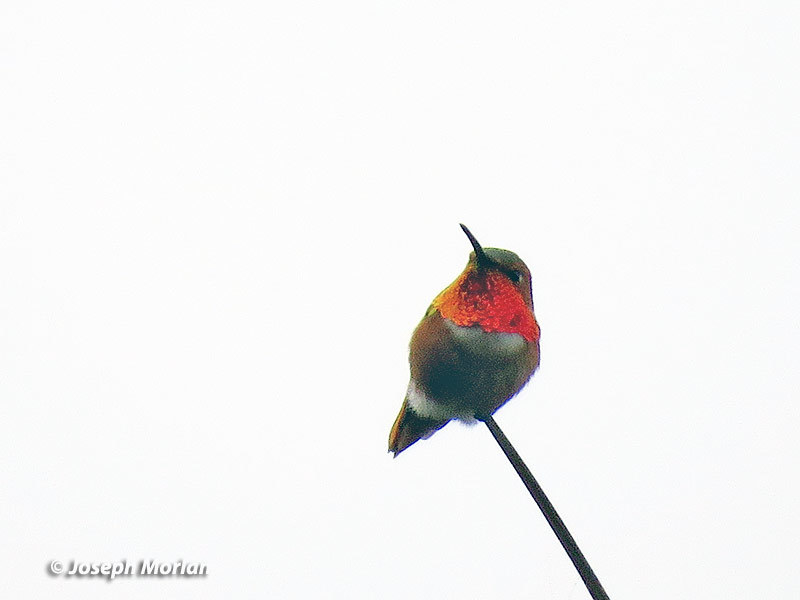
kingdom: Animalia
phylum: Chordata
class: Aves
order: Apodiformes
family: Trochilidae
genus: Selasphorus
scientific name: Selasphorus sasin
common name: Allen's hummingbird
